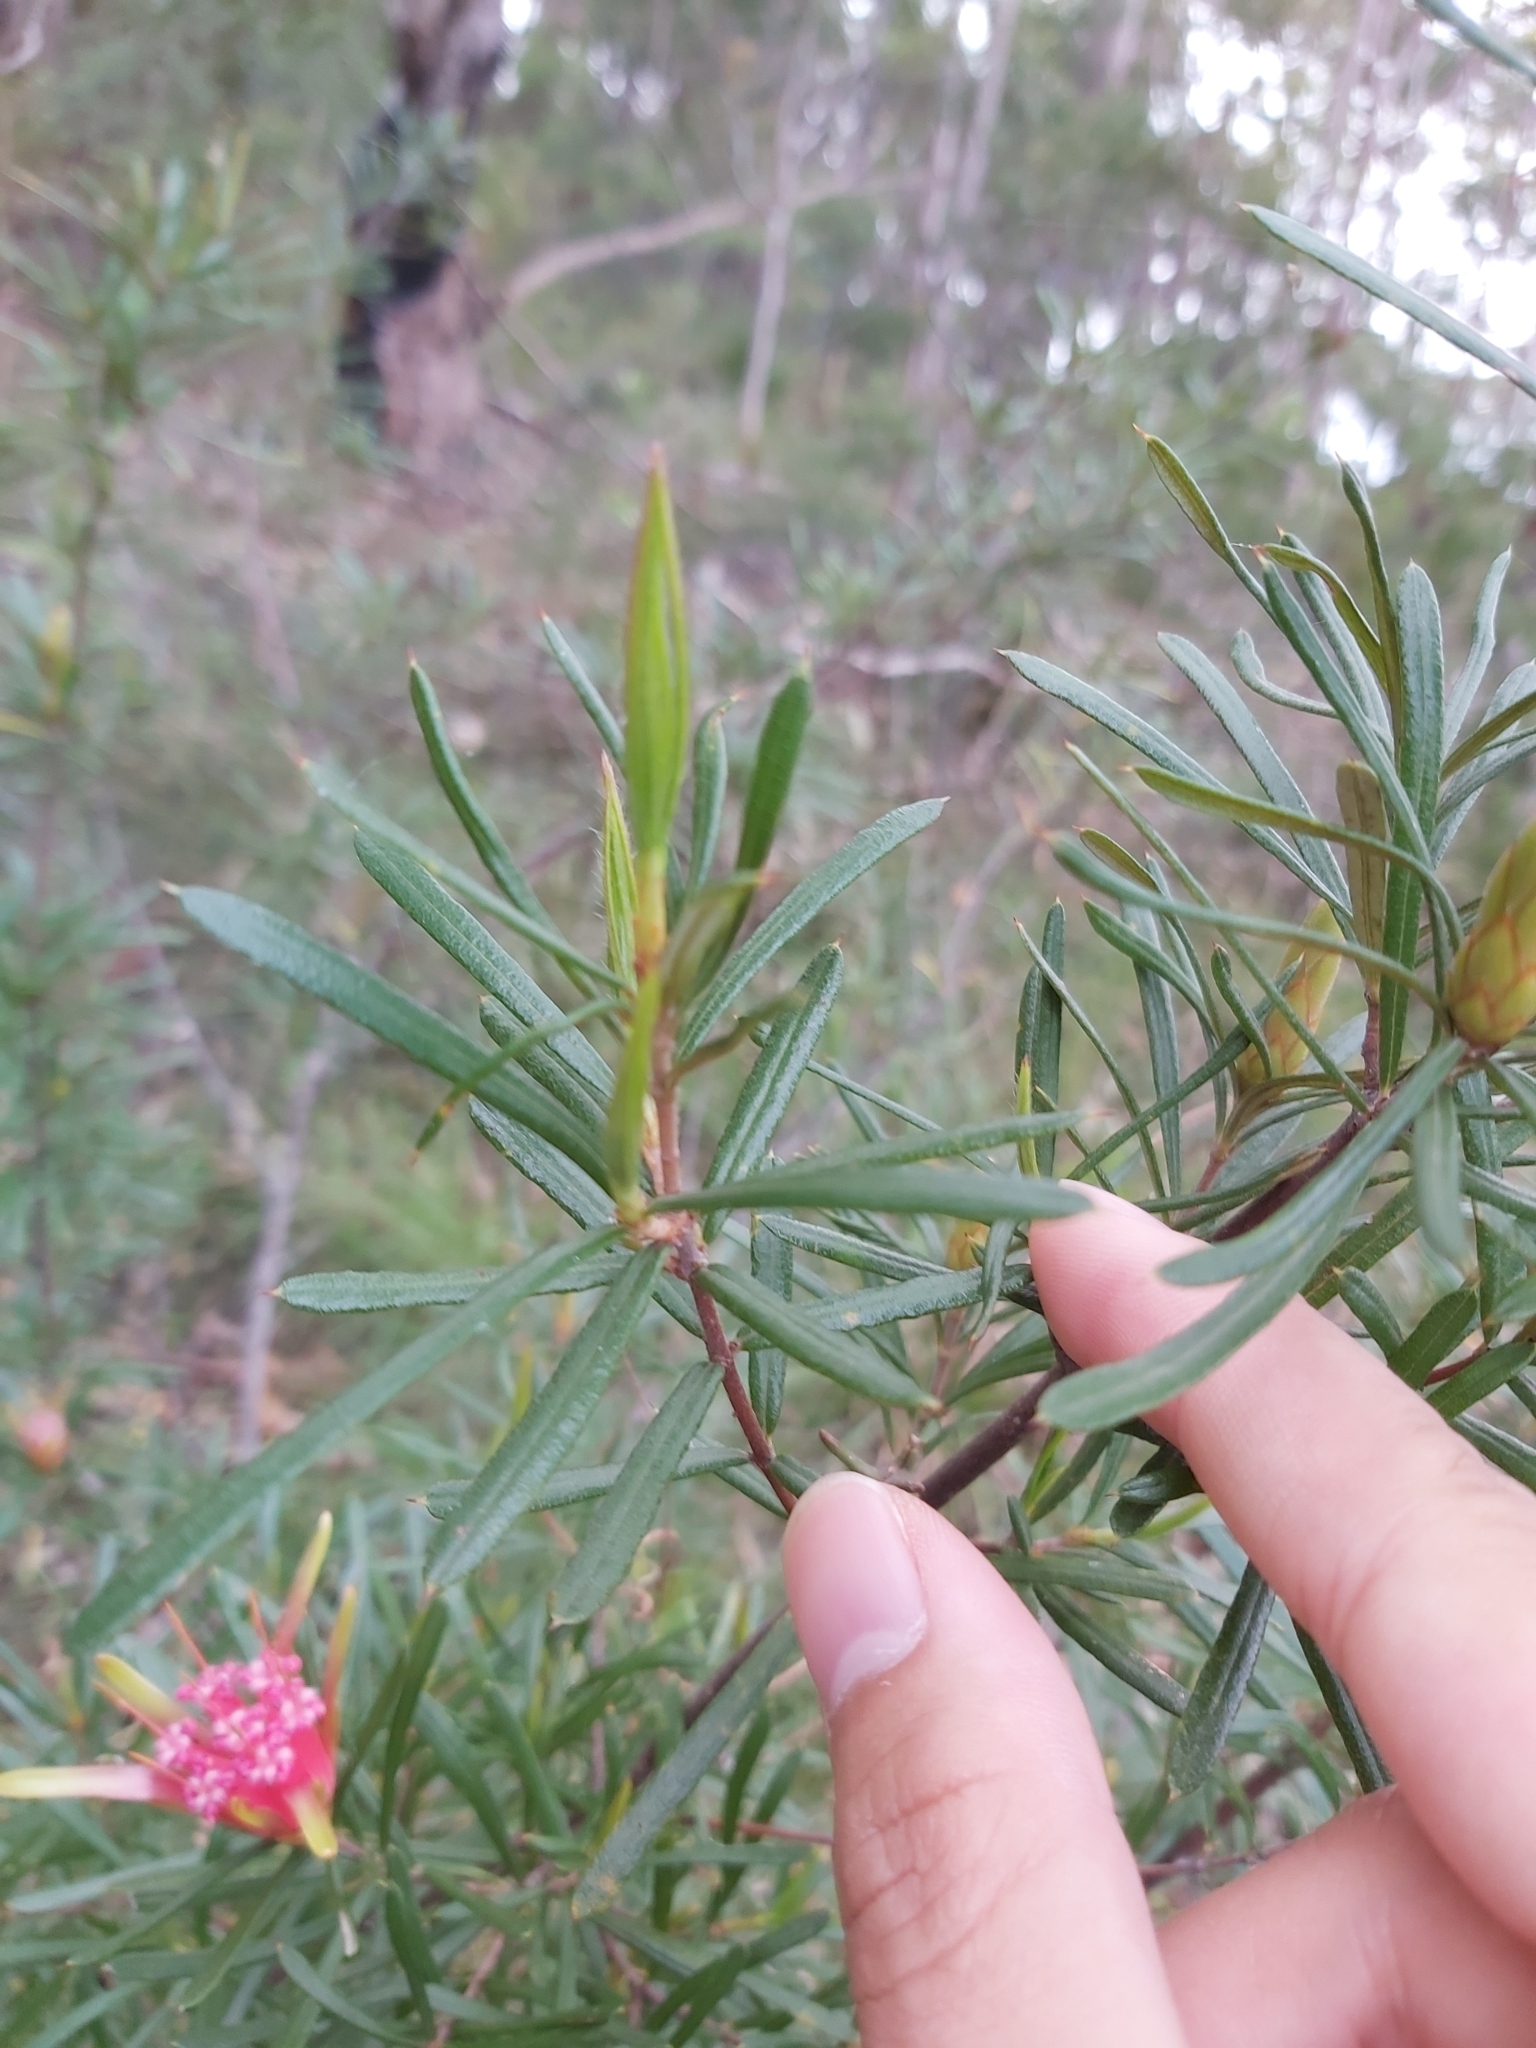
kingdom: Plantae
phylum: Tracheophyta
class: Magnoliopsida
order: Proteales
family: Proteaceae
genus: Lambertia
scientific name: Lambertia formosa
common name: Mountain-devil
